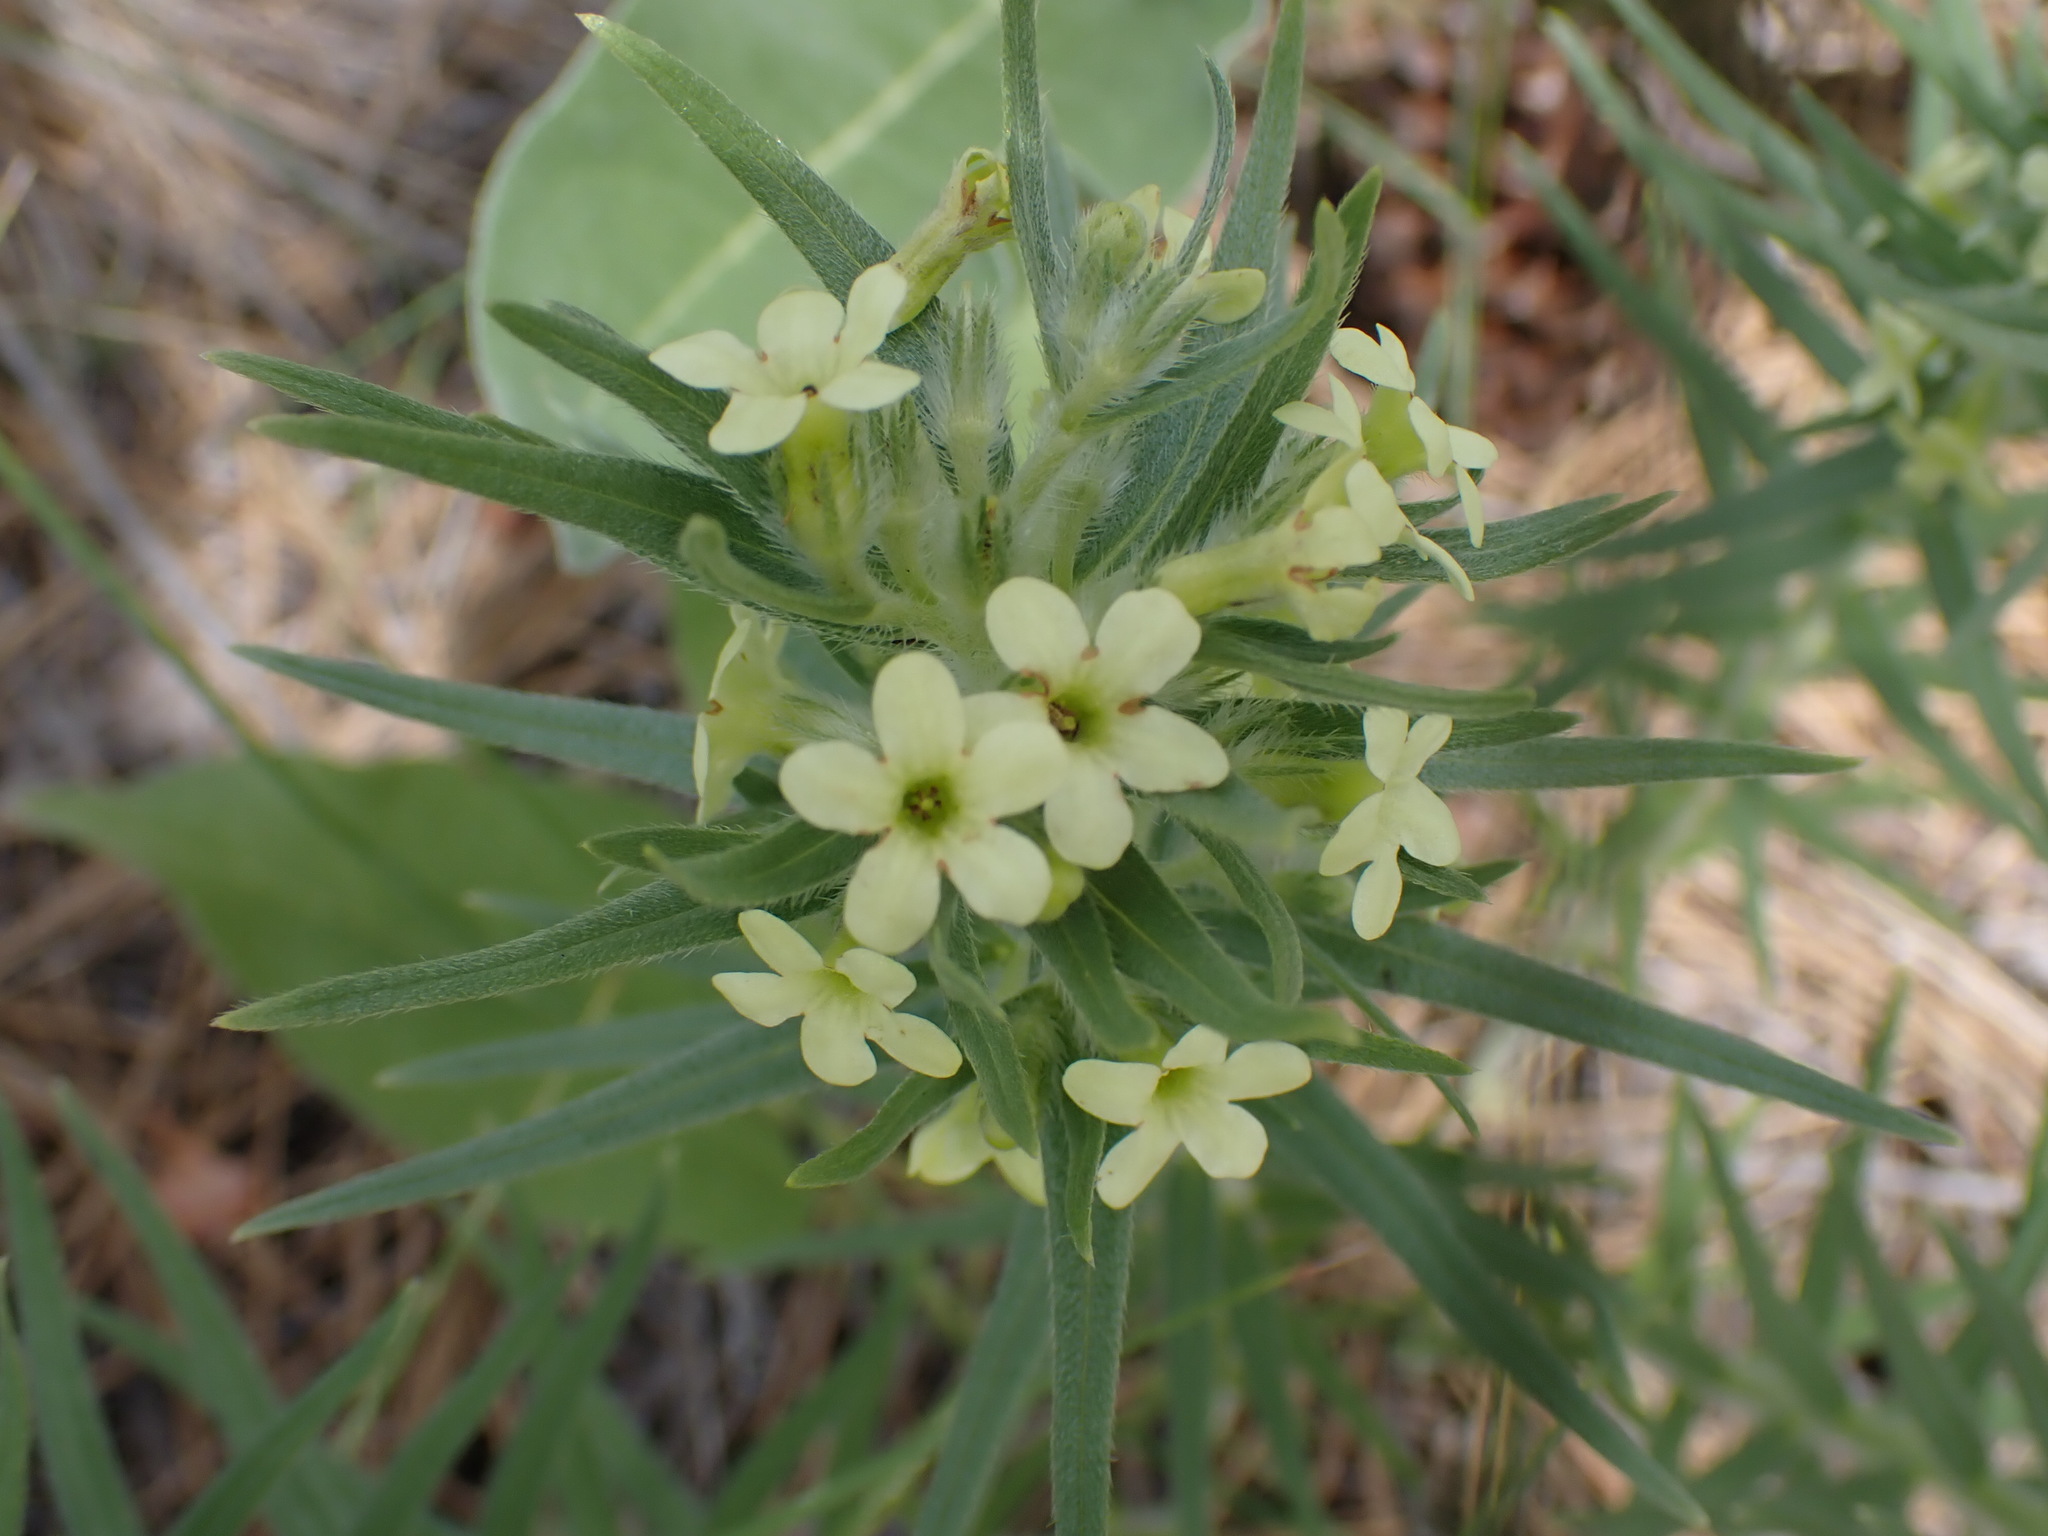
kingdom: Plantae
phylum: Tracheophyta
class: Magnoliopsida
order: Boraginales
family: Boraginaceae
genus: Lithospermum
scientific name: Lithospermum ruderale
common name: Western gromwell
